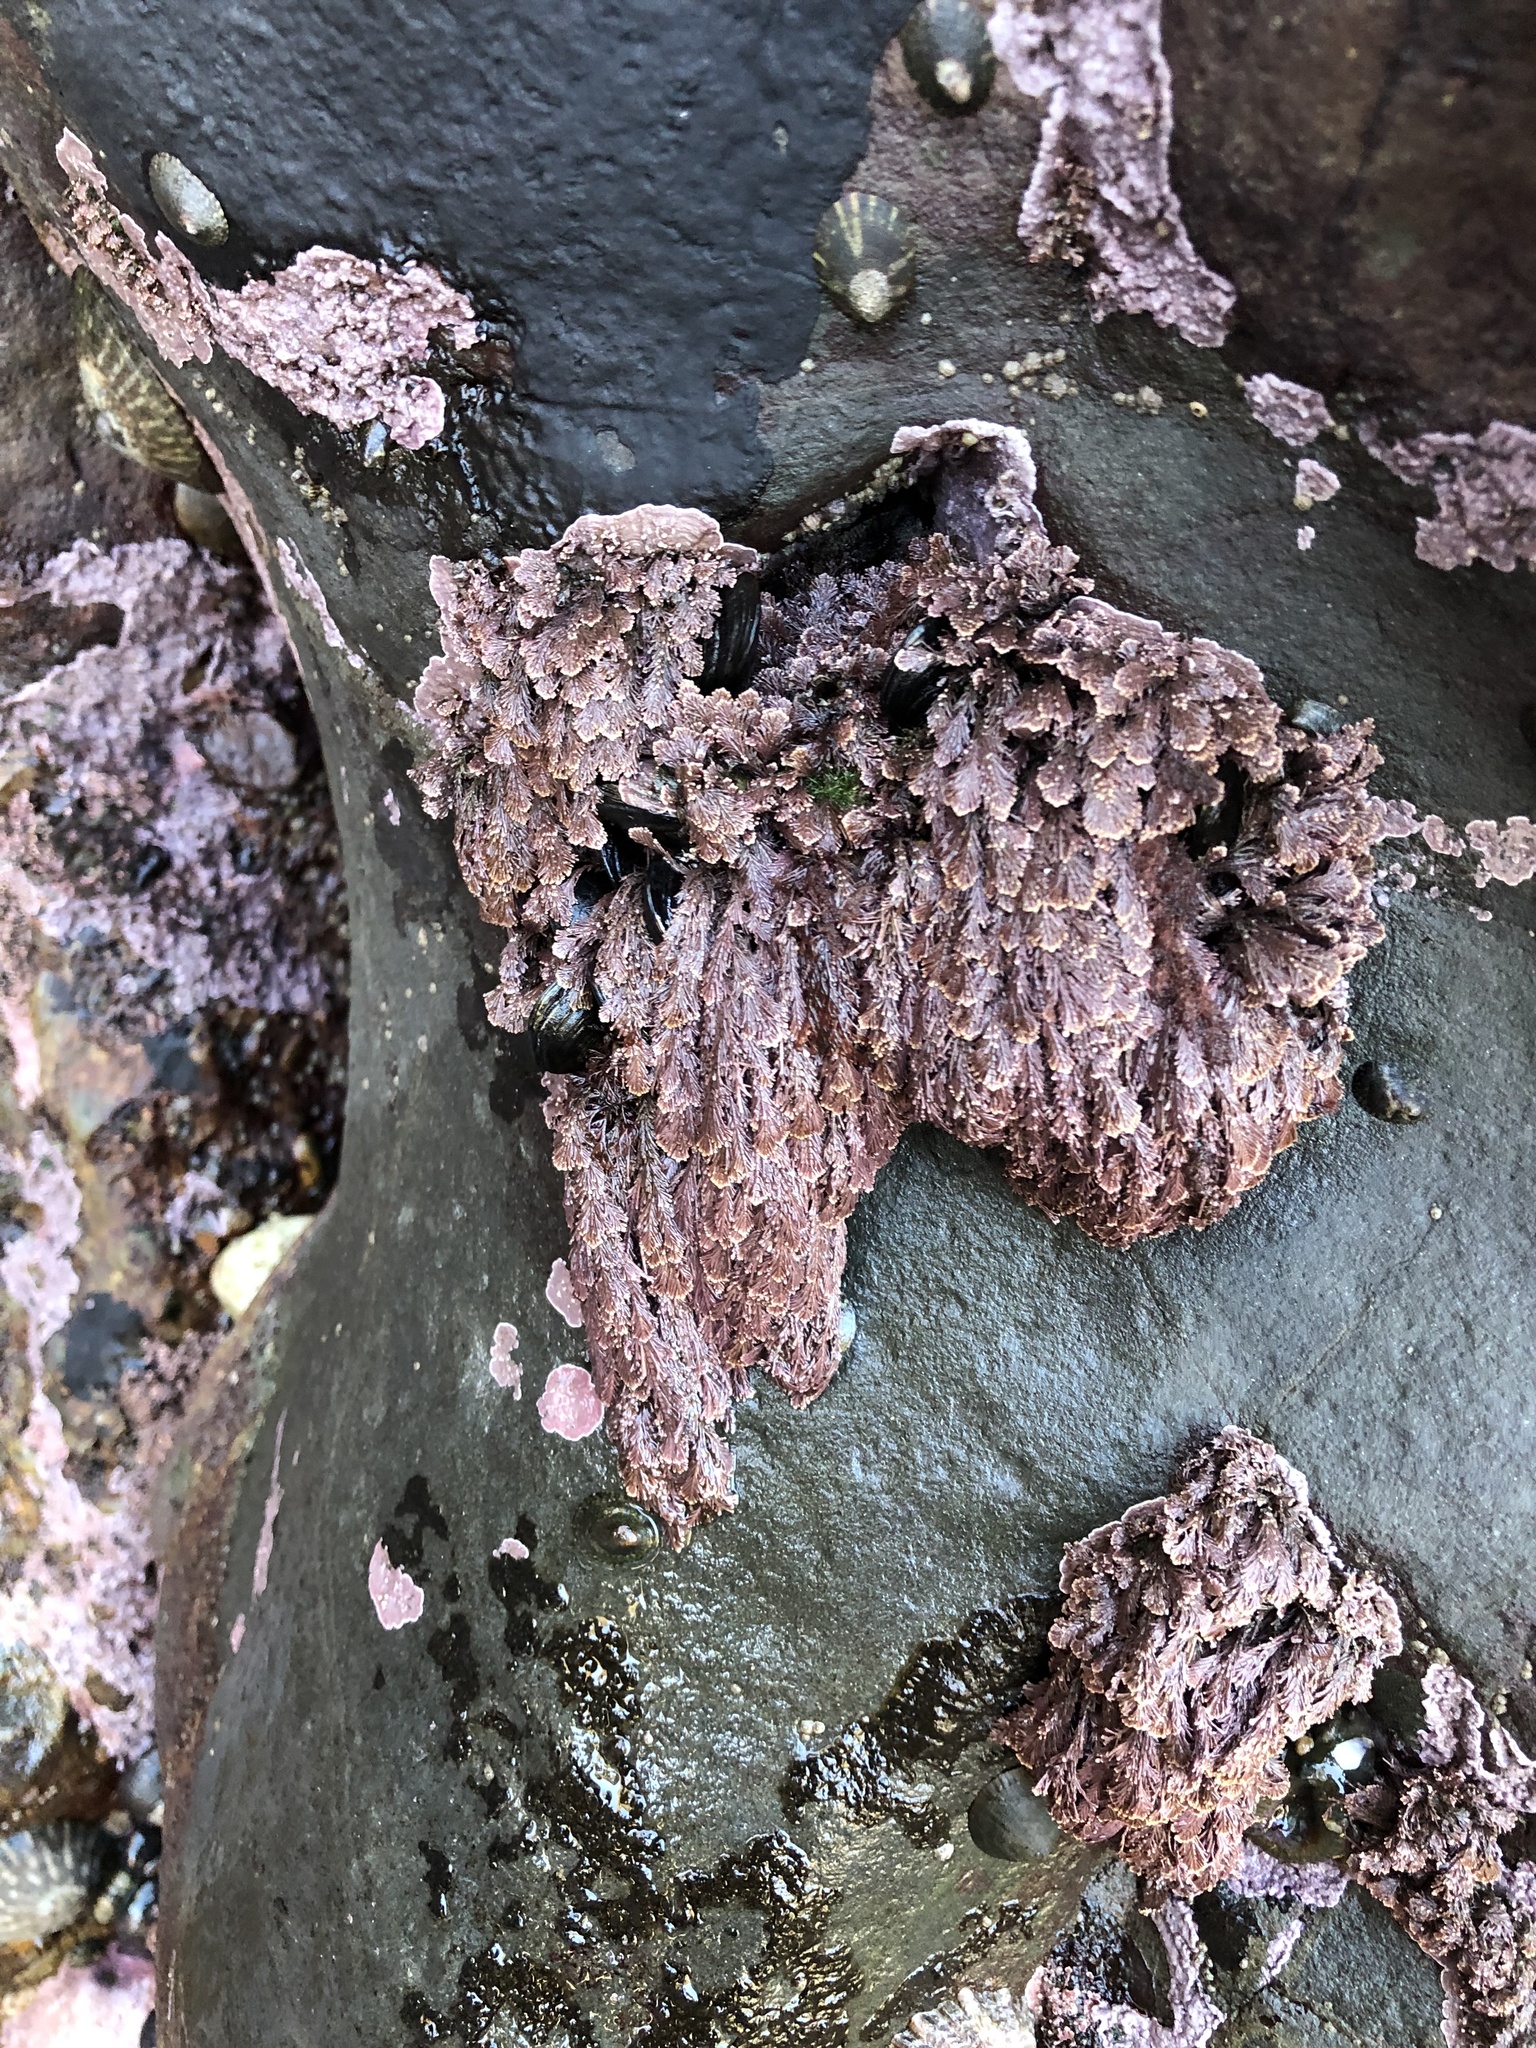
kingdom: Plantae
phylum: Rhodophyta
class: Florideophyceae
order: Corallinales
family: Corallinaceae
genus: Corallina
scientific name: Corallina vancouveriensis
